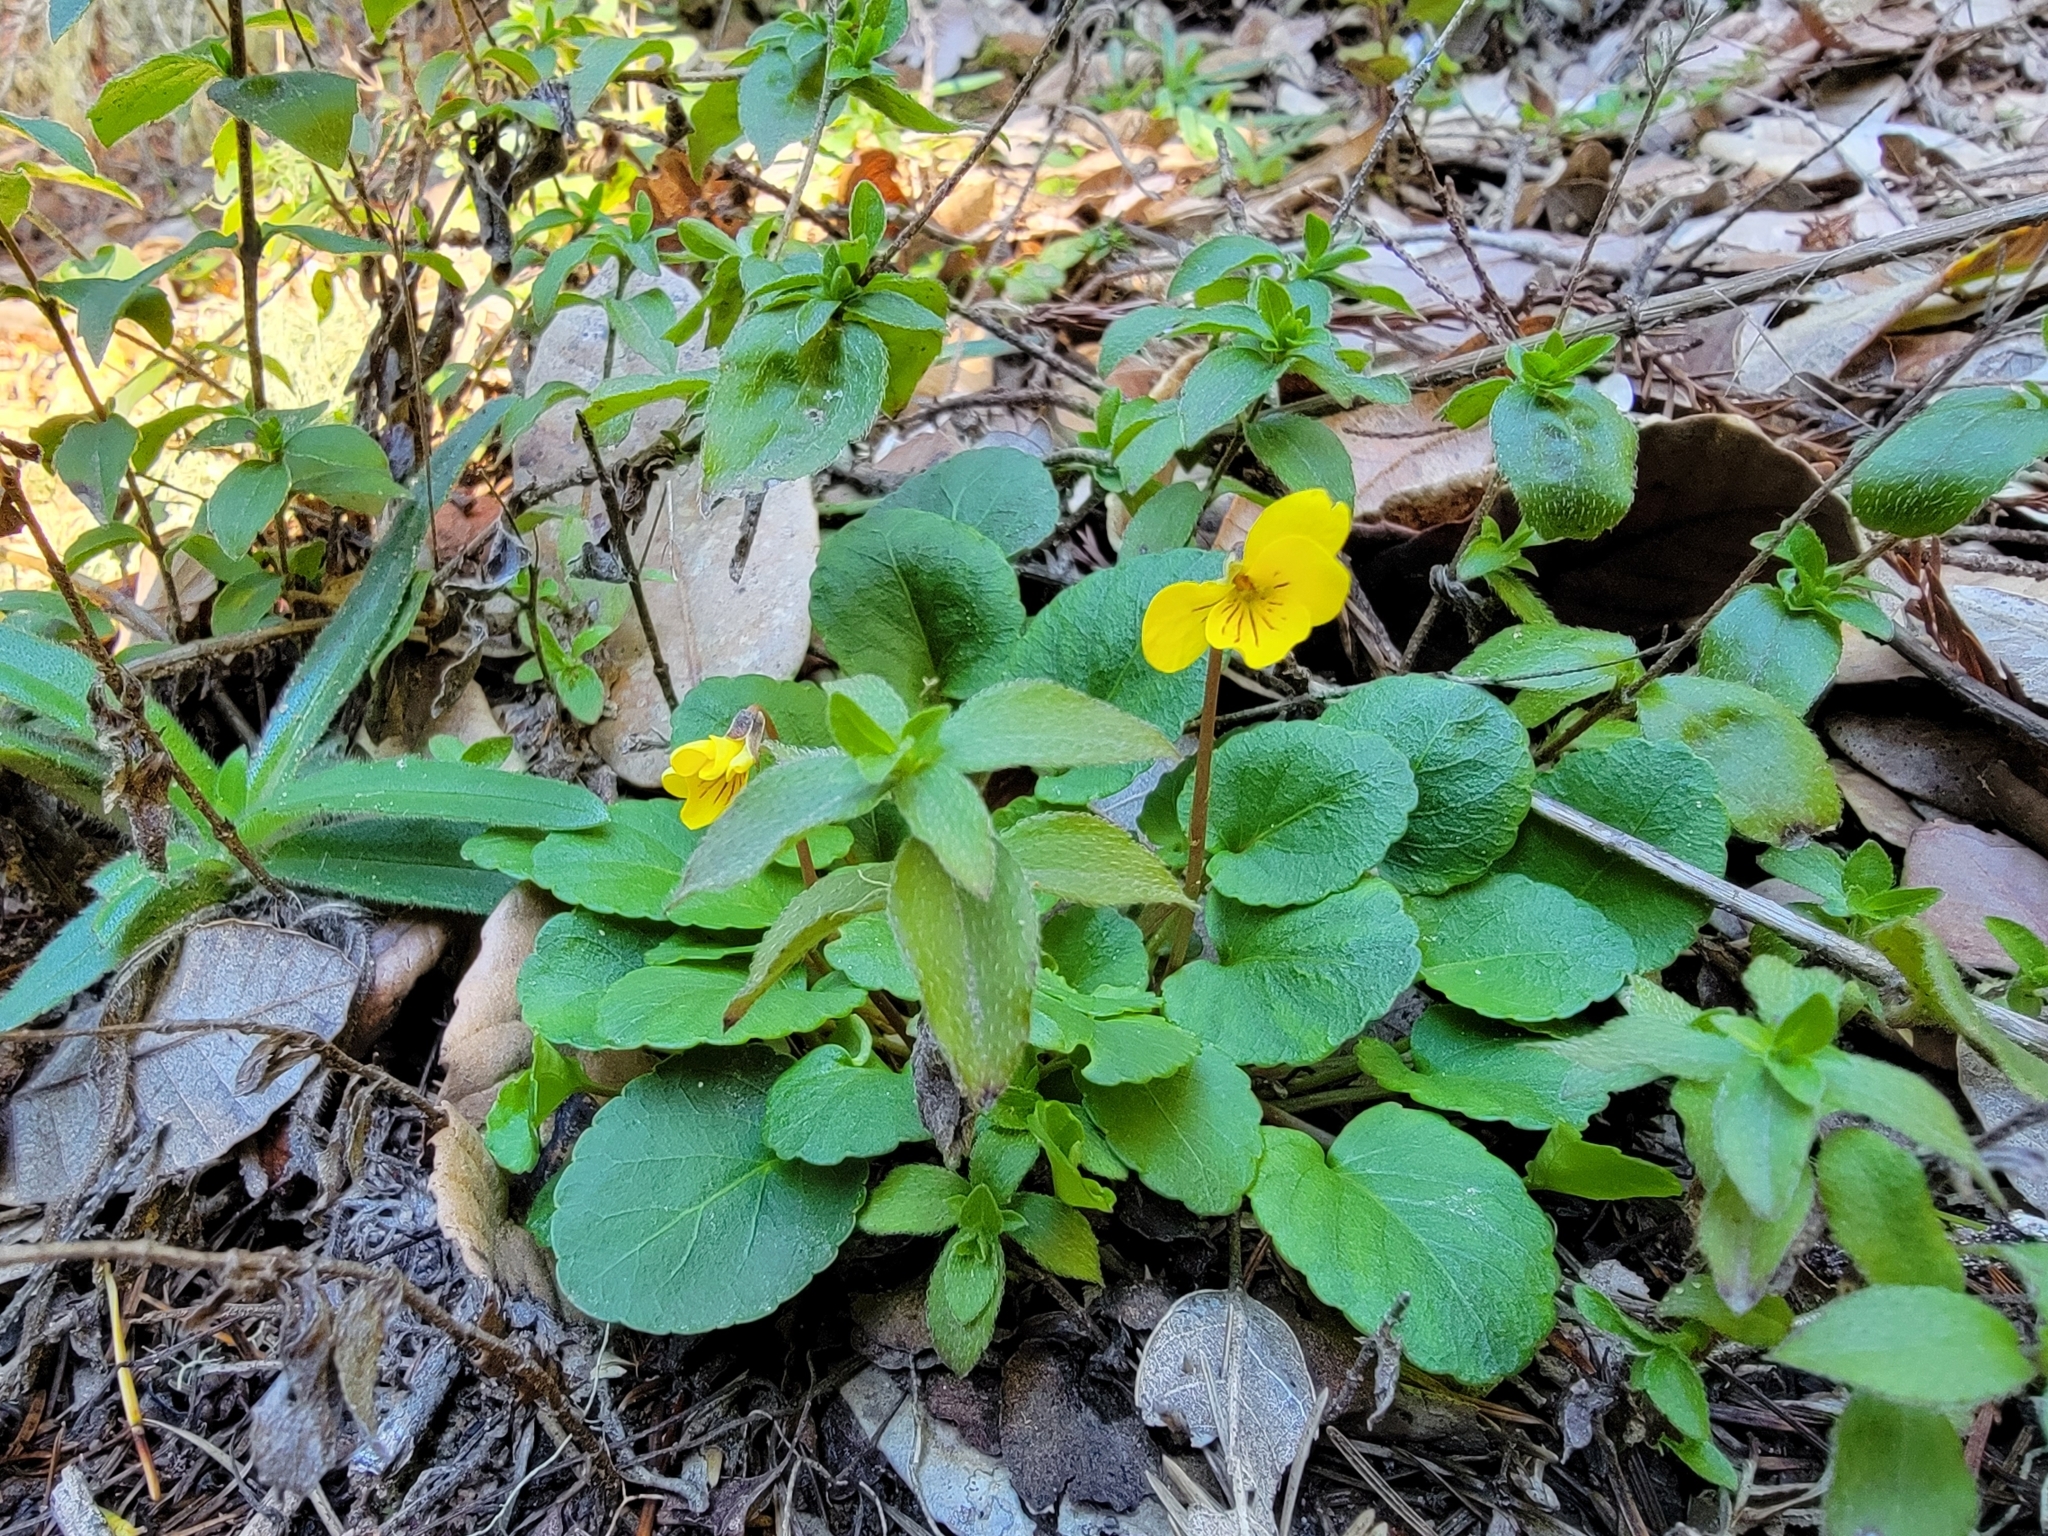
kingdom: Plantae
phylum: Tracheophyta
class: Magnoliopsida
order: Malpighiales
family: Violaceae
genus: Viola
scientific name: Viola sempervirens
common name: Evergreen violet
